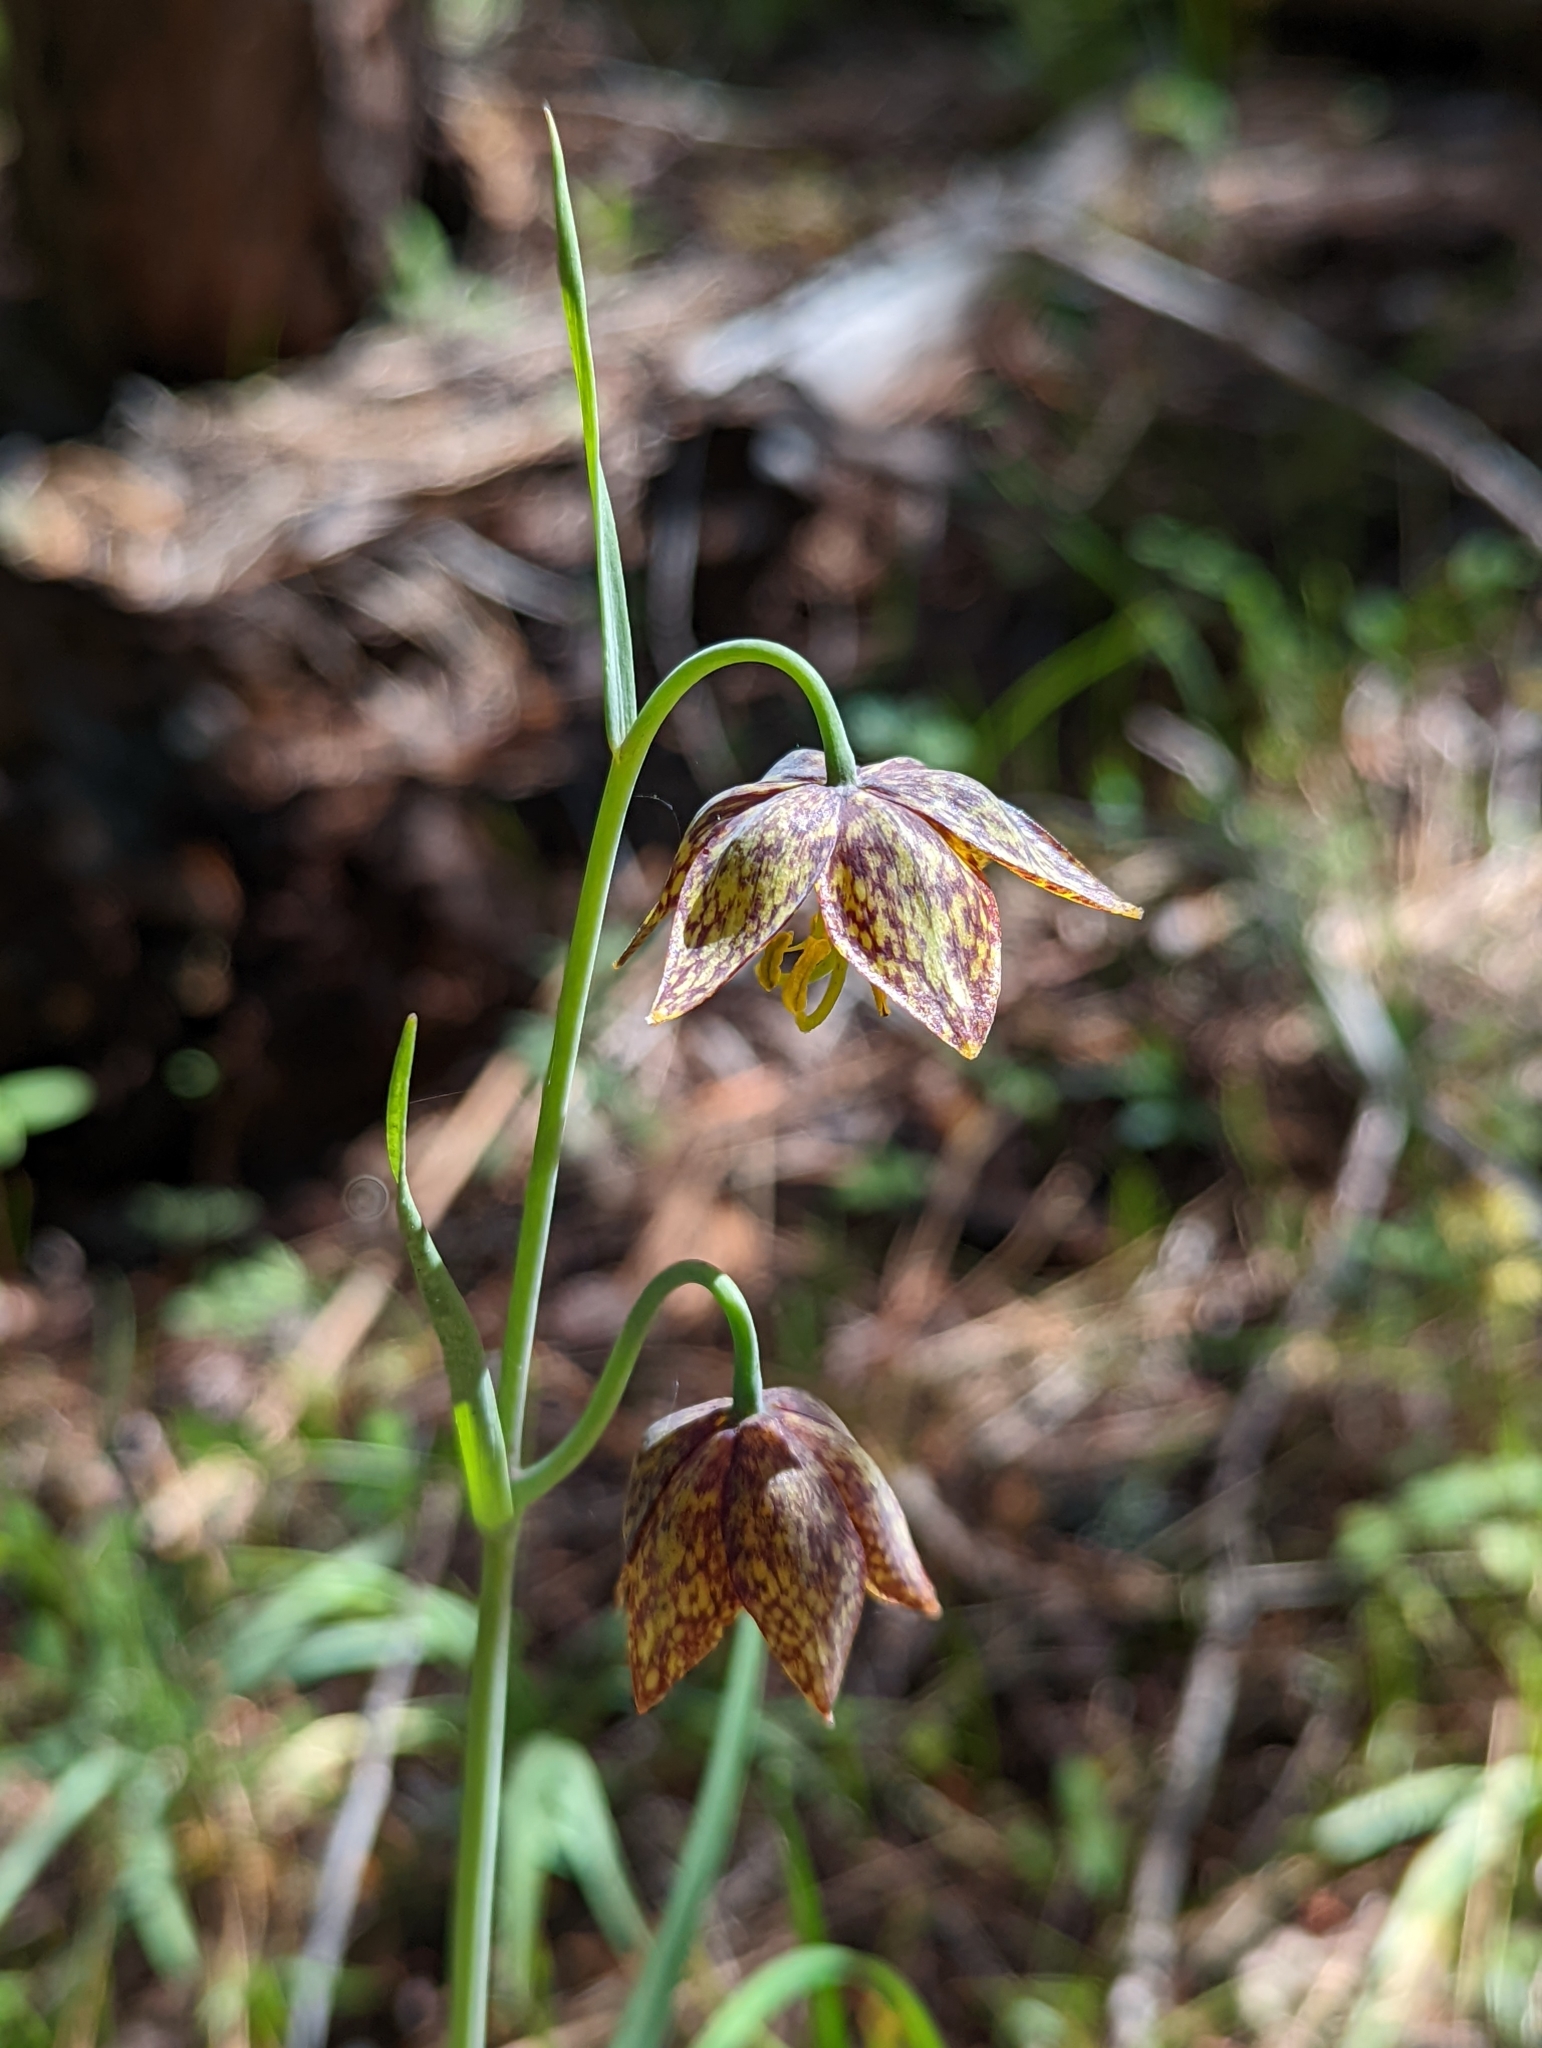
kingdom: Plantae
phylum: Tracheophyta
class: Liliopsida
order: Liliales
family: Liliaceae
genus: Fritillaria
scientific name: Fritillaria atropurpurea
